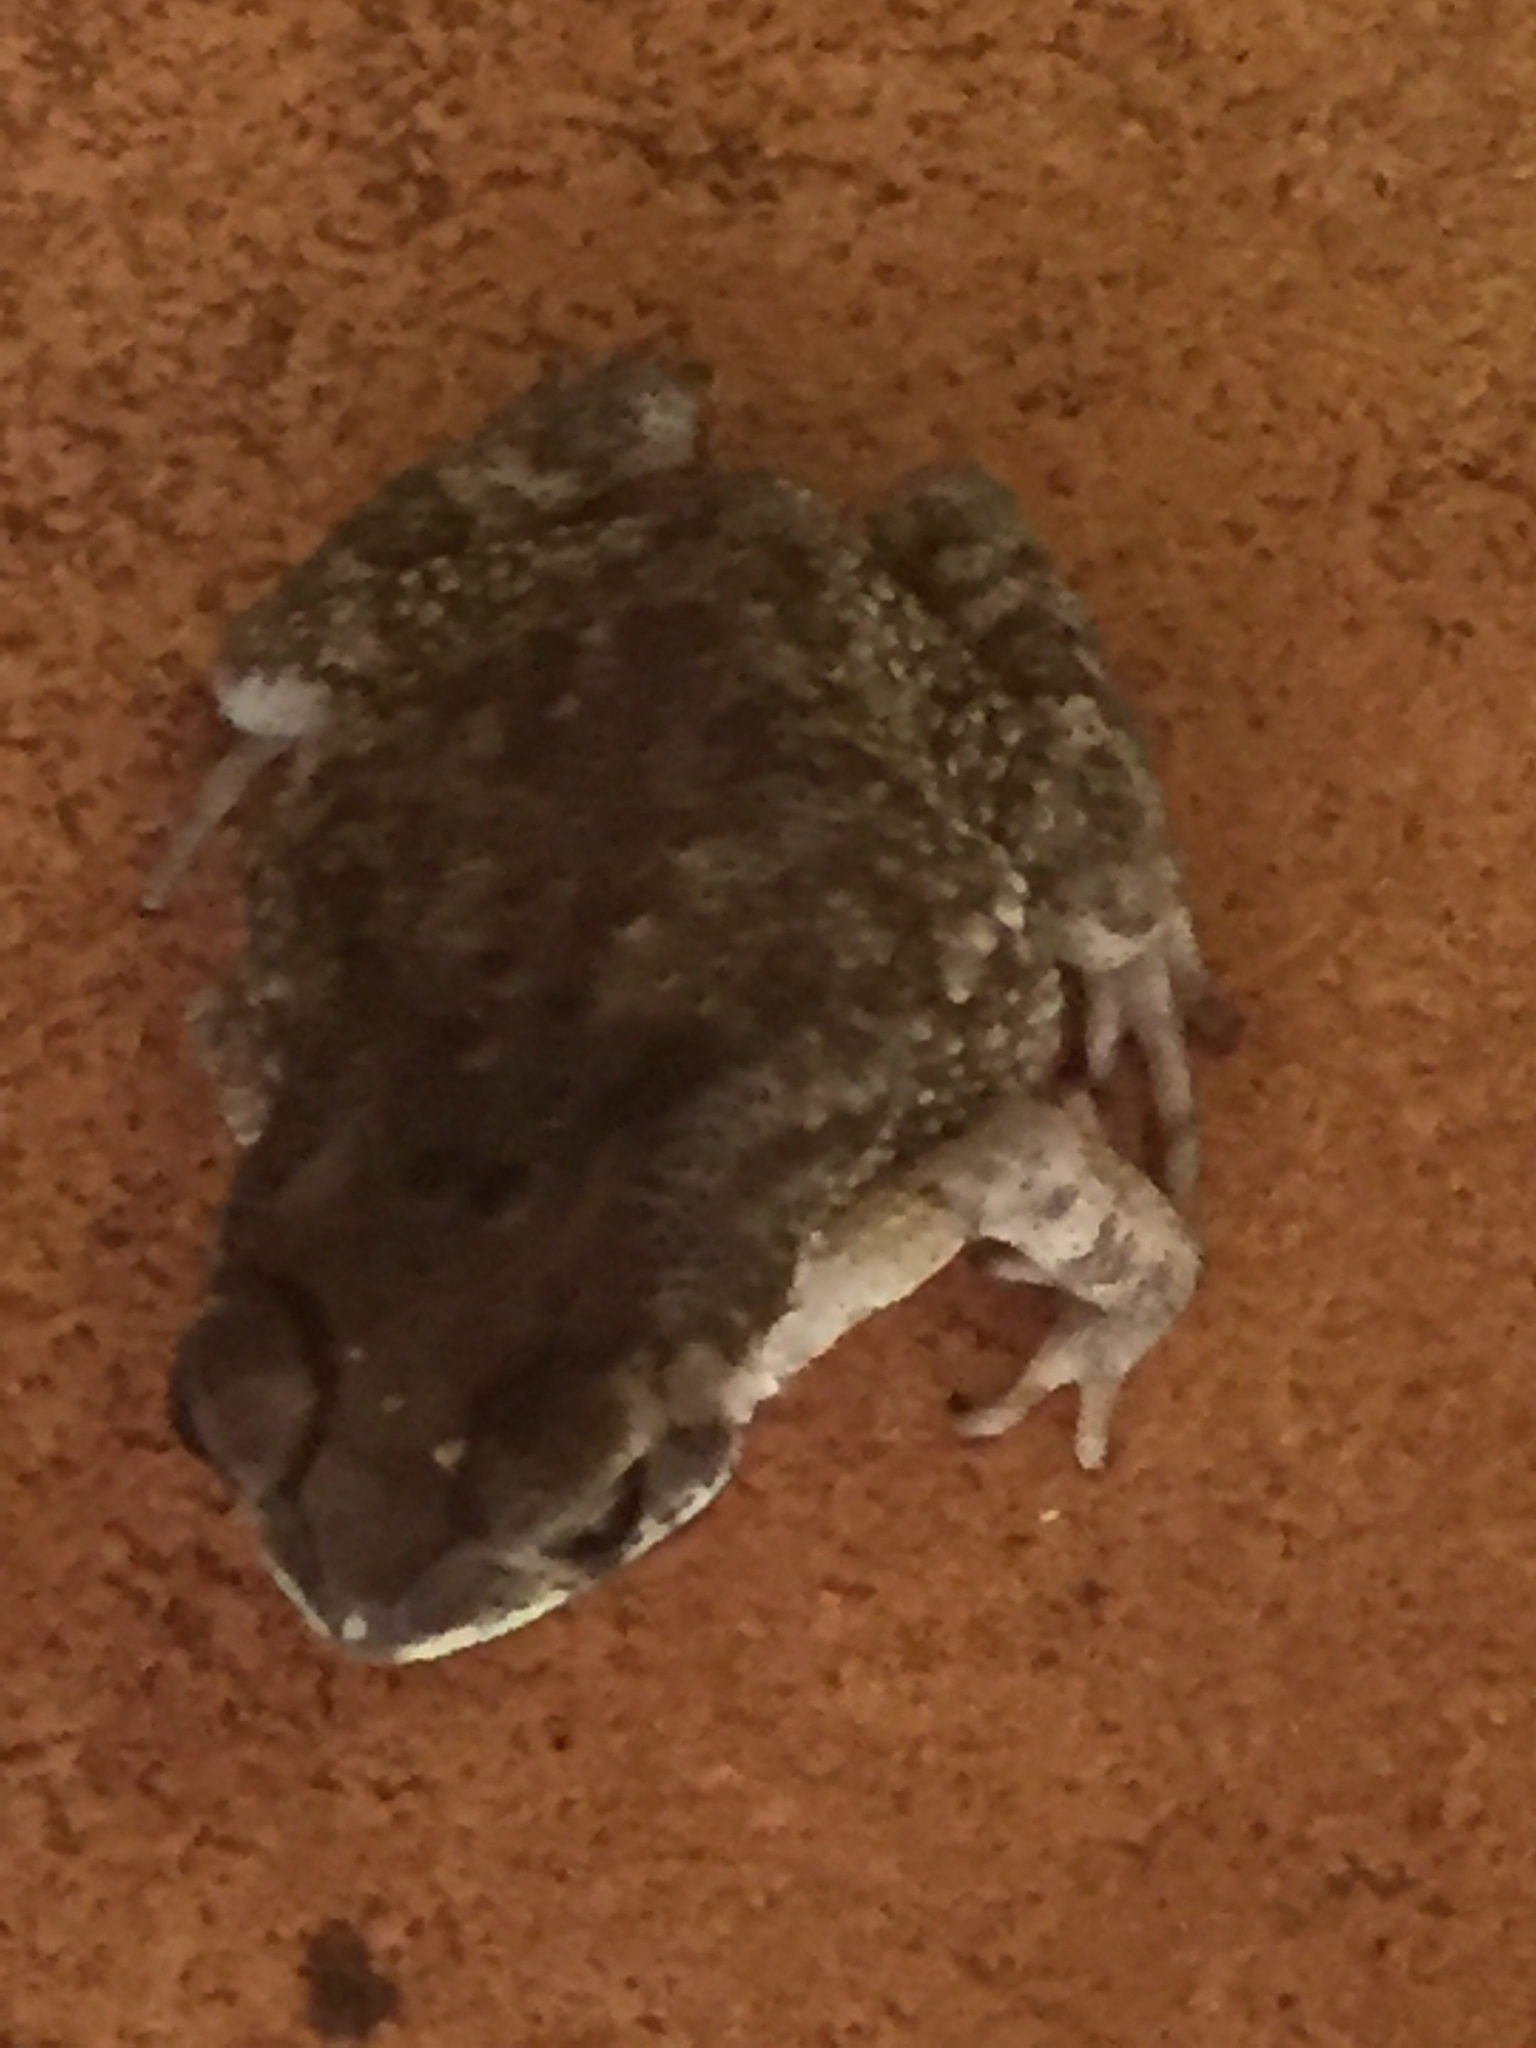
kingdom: Animalia
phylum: Chordata
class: Amphibia
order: Anura
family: Bufonidae
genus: Duttaphrynus
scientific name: Duttaphrynus melanostictus
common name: Common sunda toad
